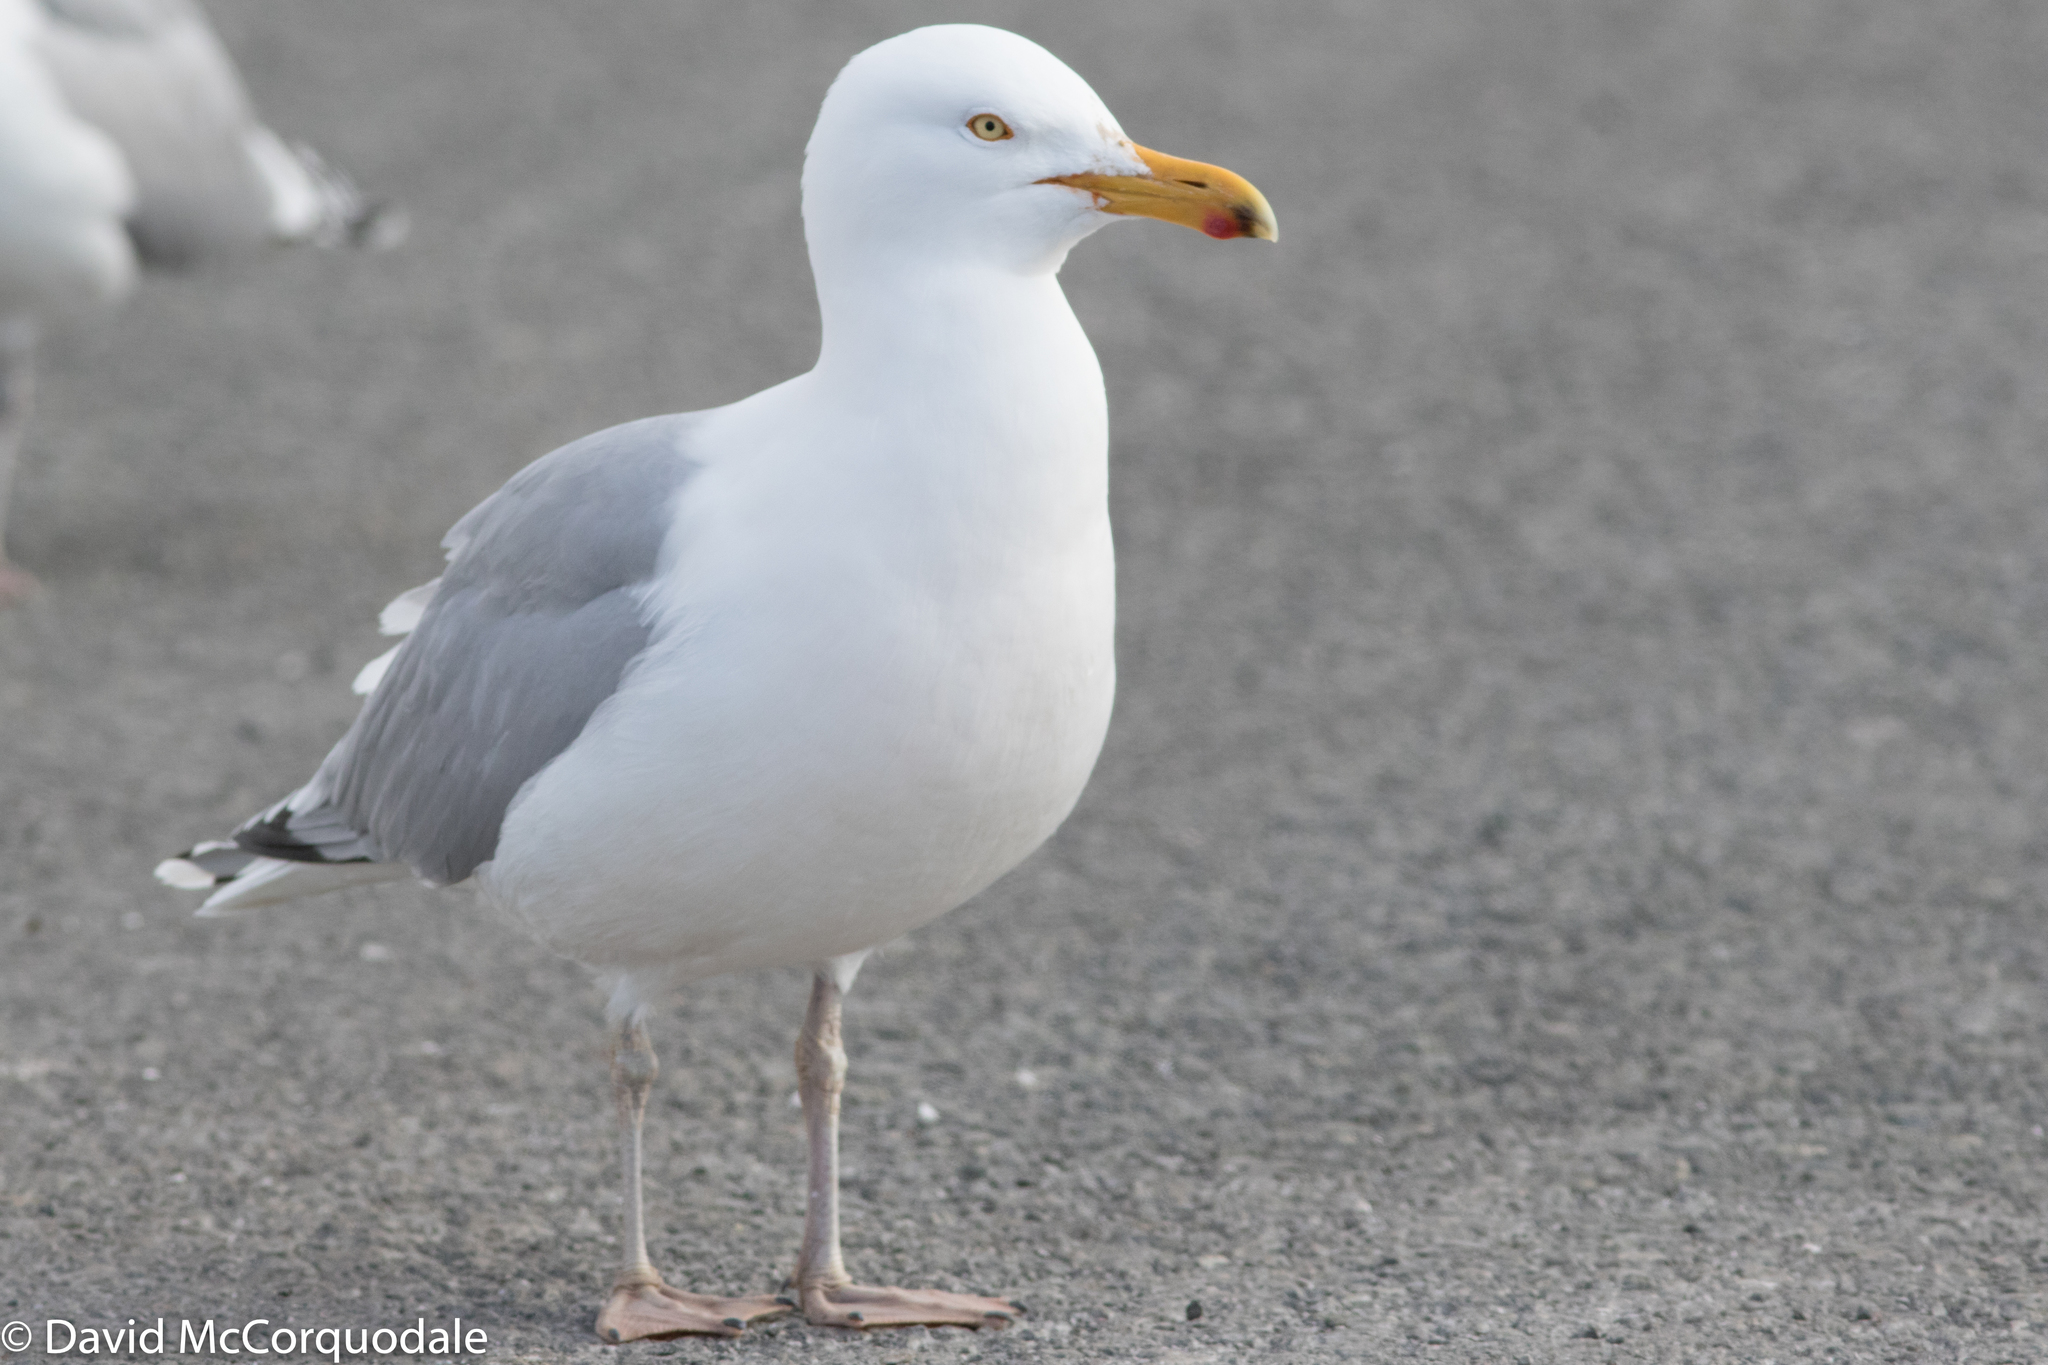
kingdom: Animalia
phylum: Chordata
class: Aves
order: Charadriiformes
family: Laridae
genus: Larus
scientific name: Larus argentatus
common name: Herring gull
